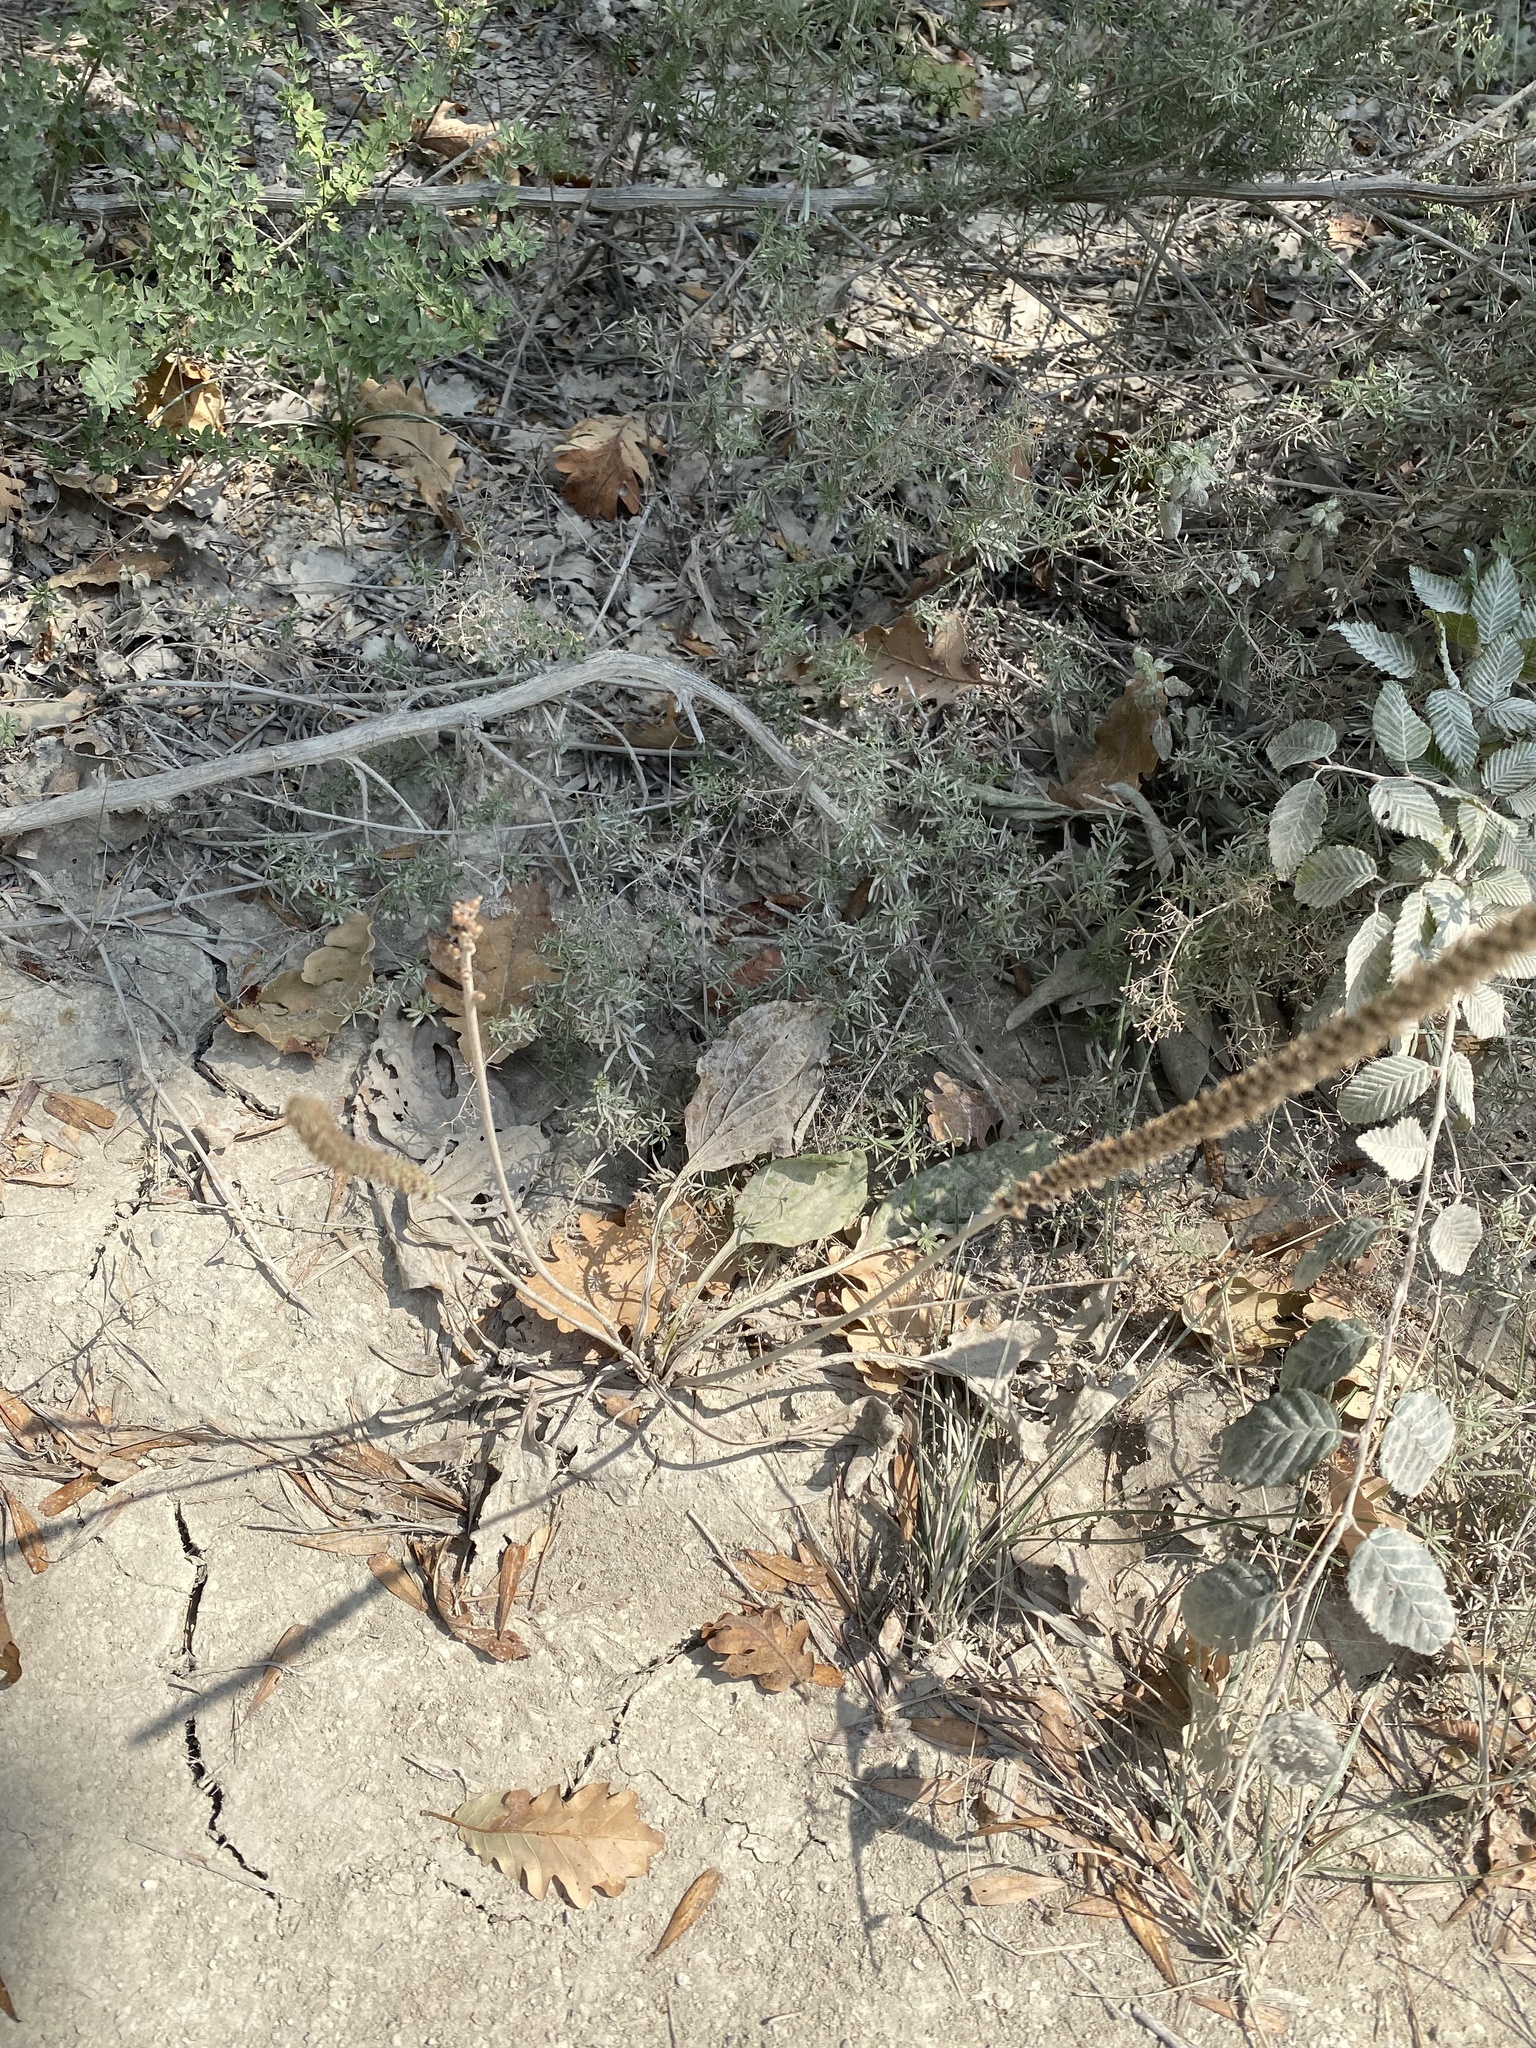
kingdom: Plantae
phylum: Tracheophyta
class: Magnoliopsida
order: Lamiales
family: Plantaginaceae
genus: Plantago
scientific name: Plantago major
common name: Common plantain
